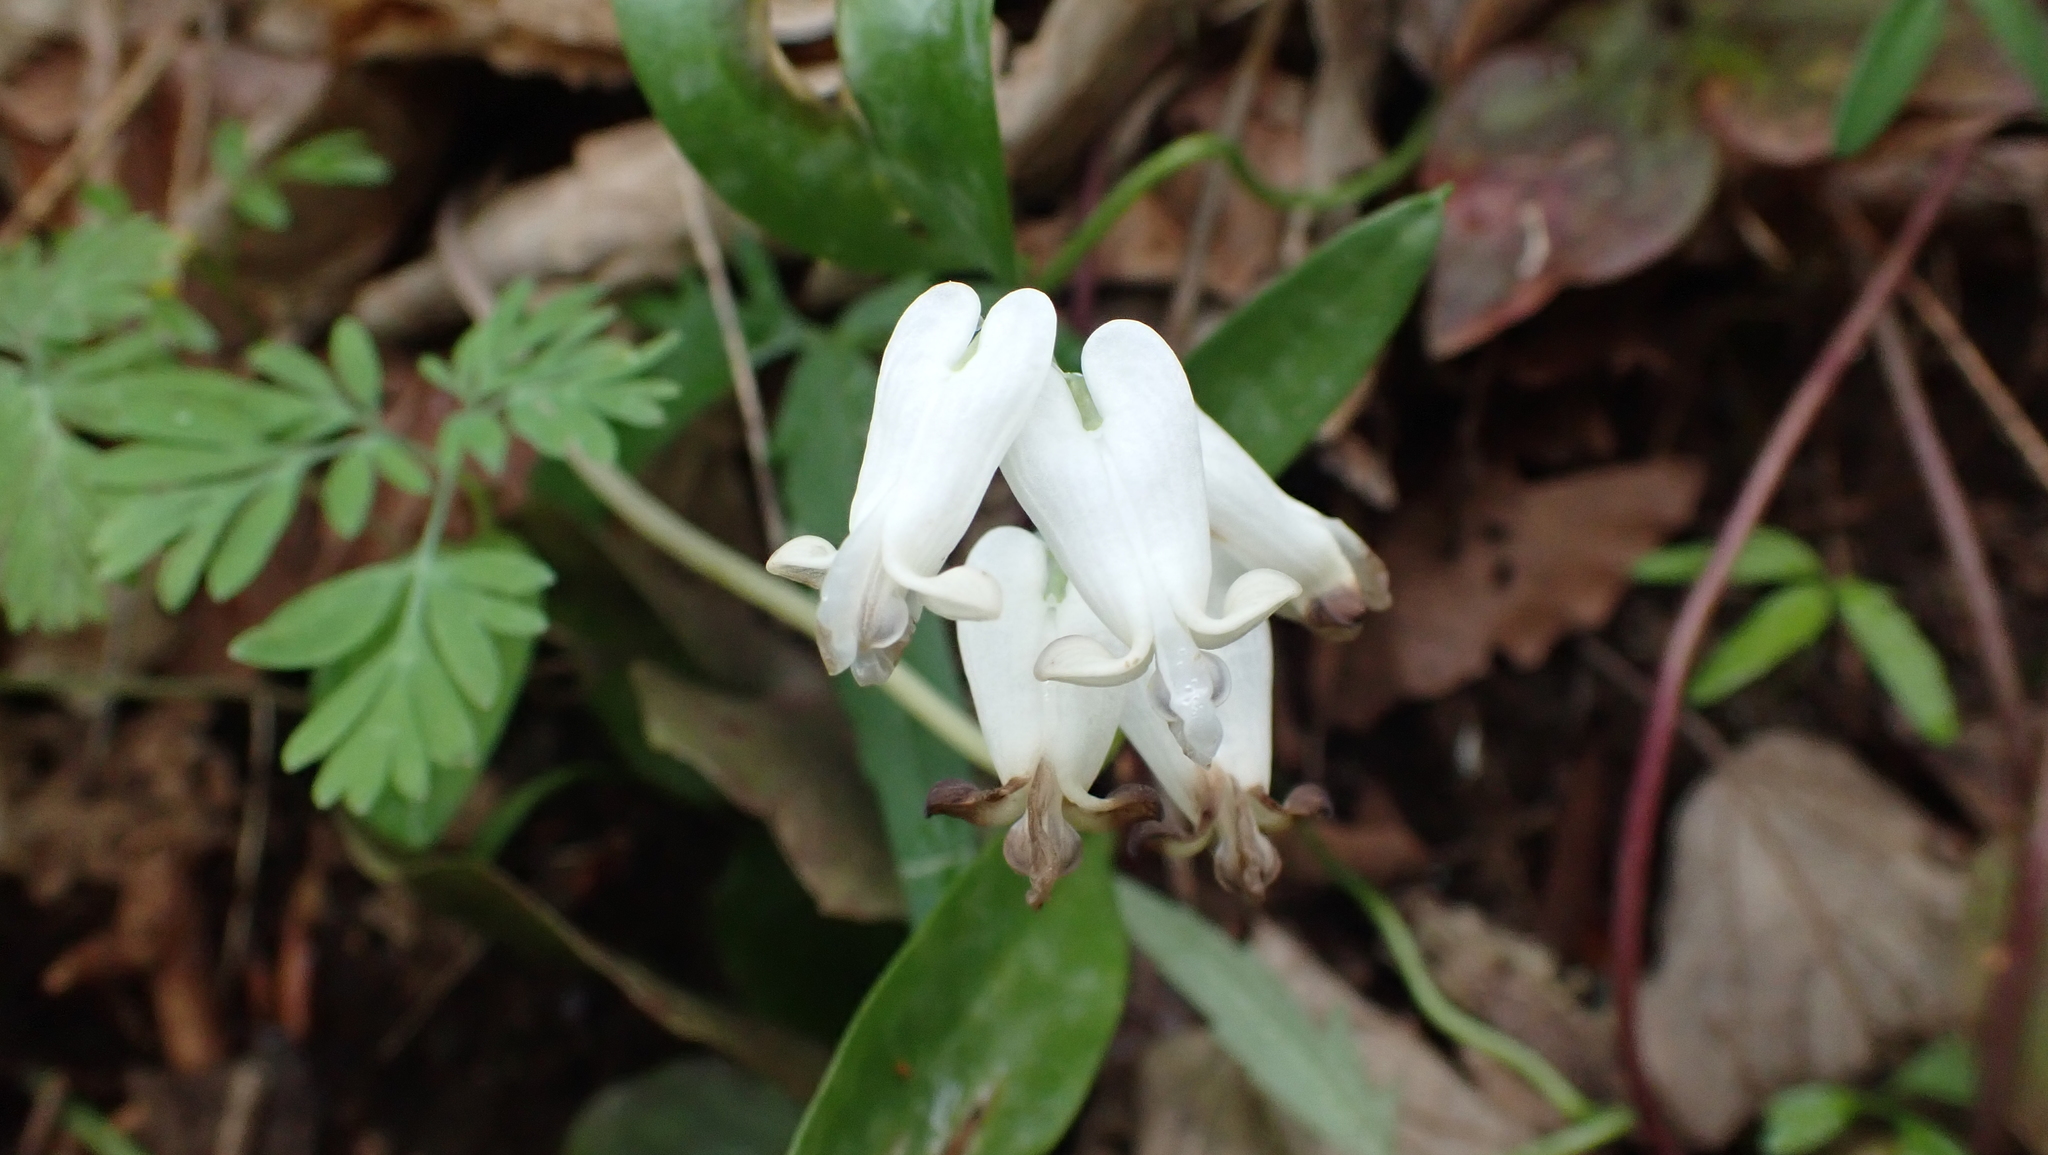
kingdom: Plantae
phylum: Tracheophyta
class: Magnoliopsida
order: Ranunculales
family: Papaveraceae
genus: Dicentra
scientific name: Dicentra canadensis
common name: Squirrel-corn
